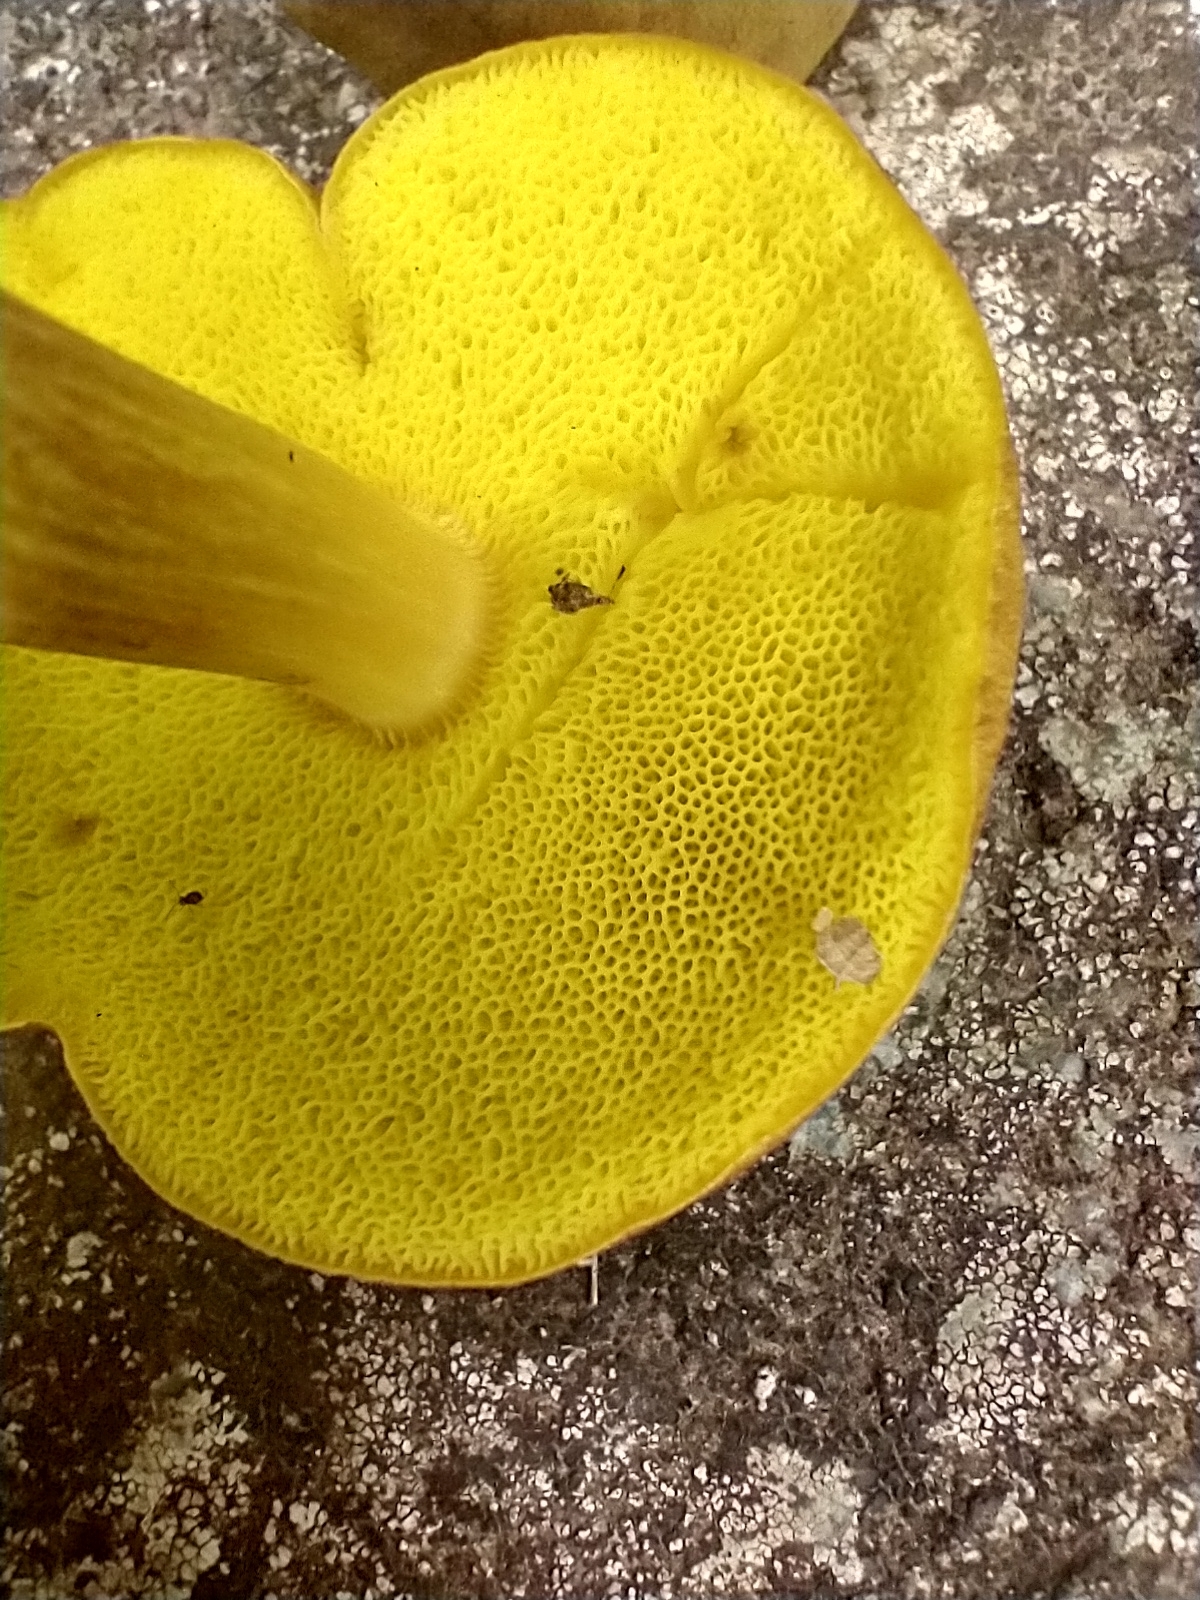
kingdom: Fungi
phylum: Basidiomycota
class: Agaricomycetes
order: Boletales
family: Boletaceae
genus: Aureoboletus
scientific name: Aureoboletus innixus
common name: Clustered brown bolete
